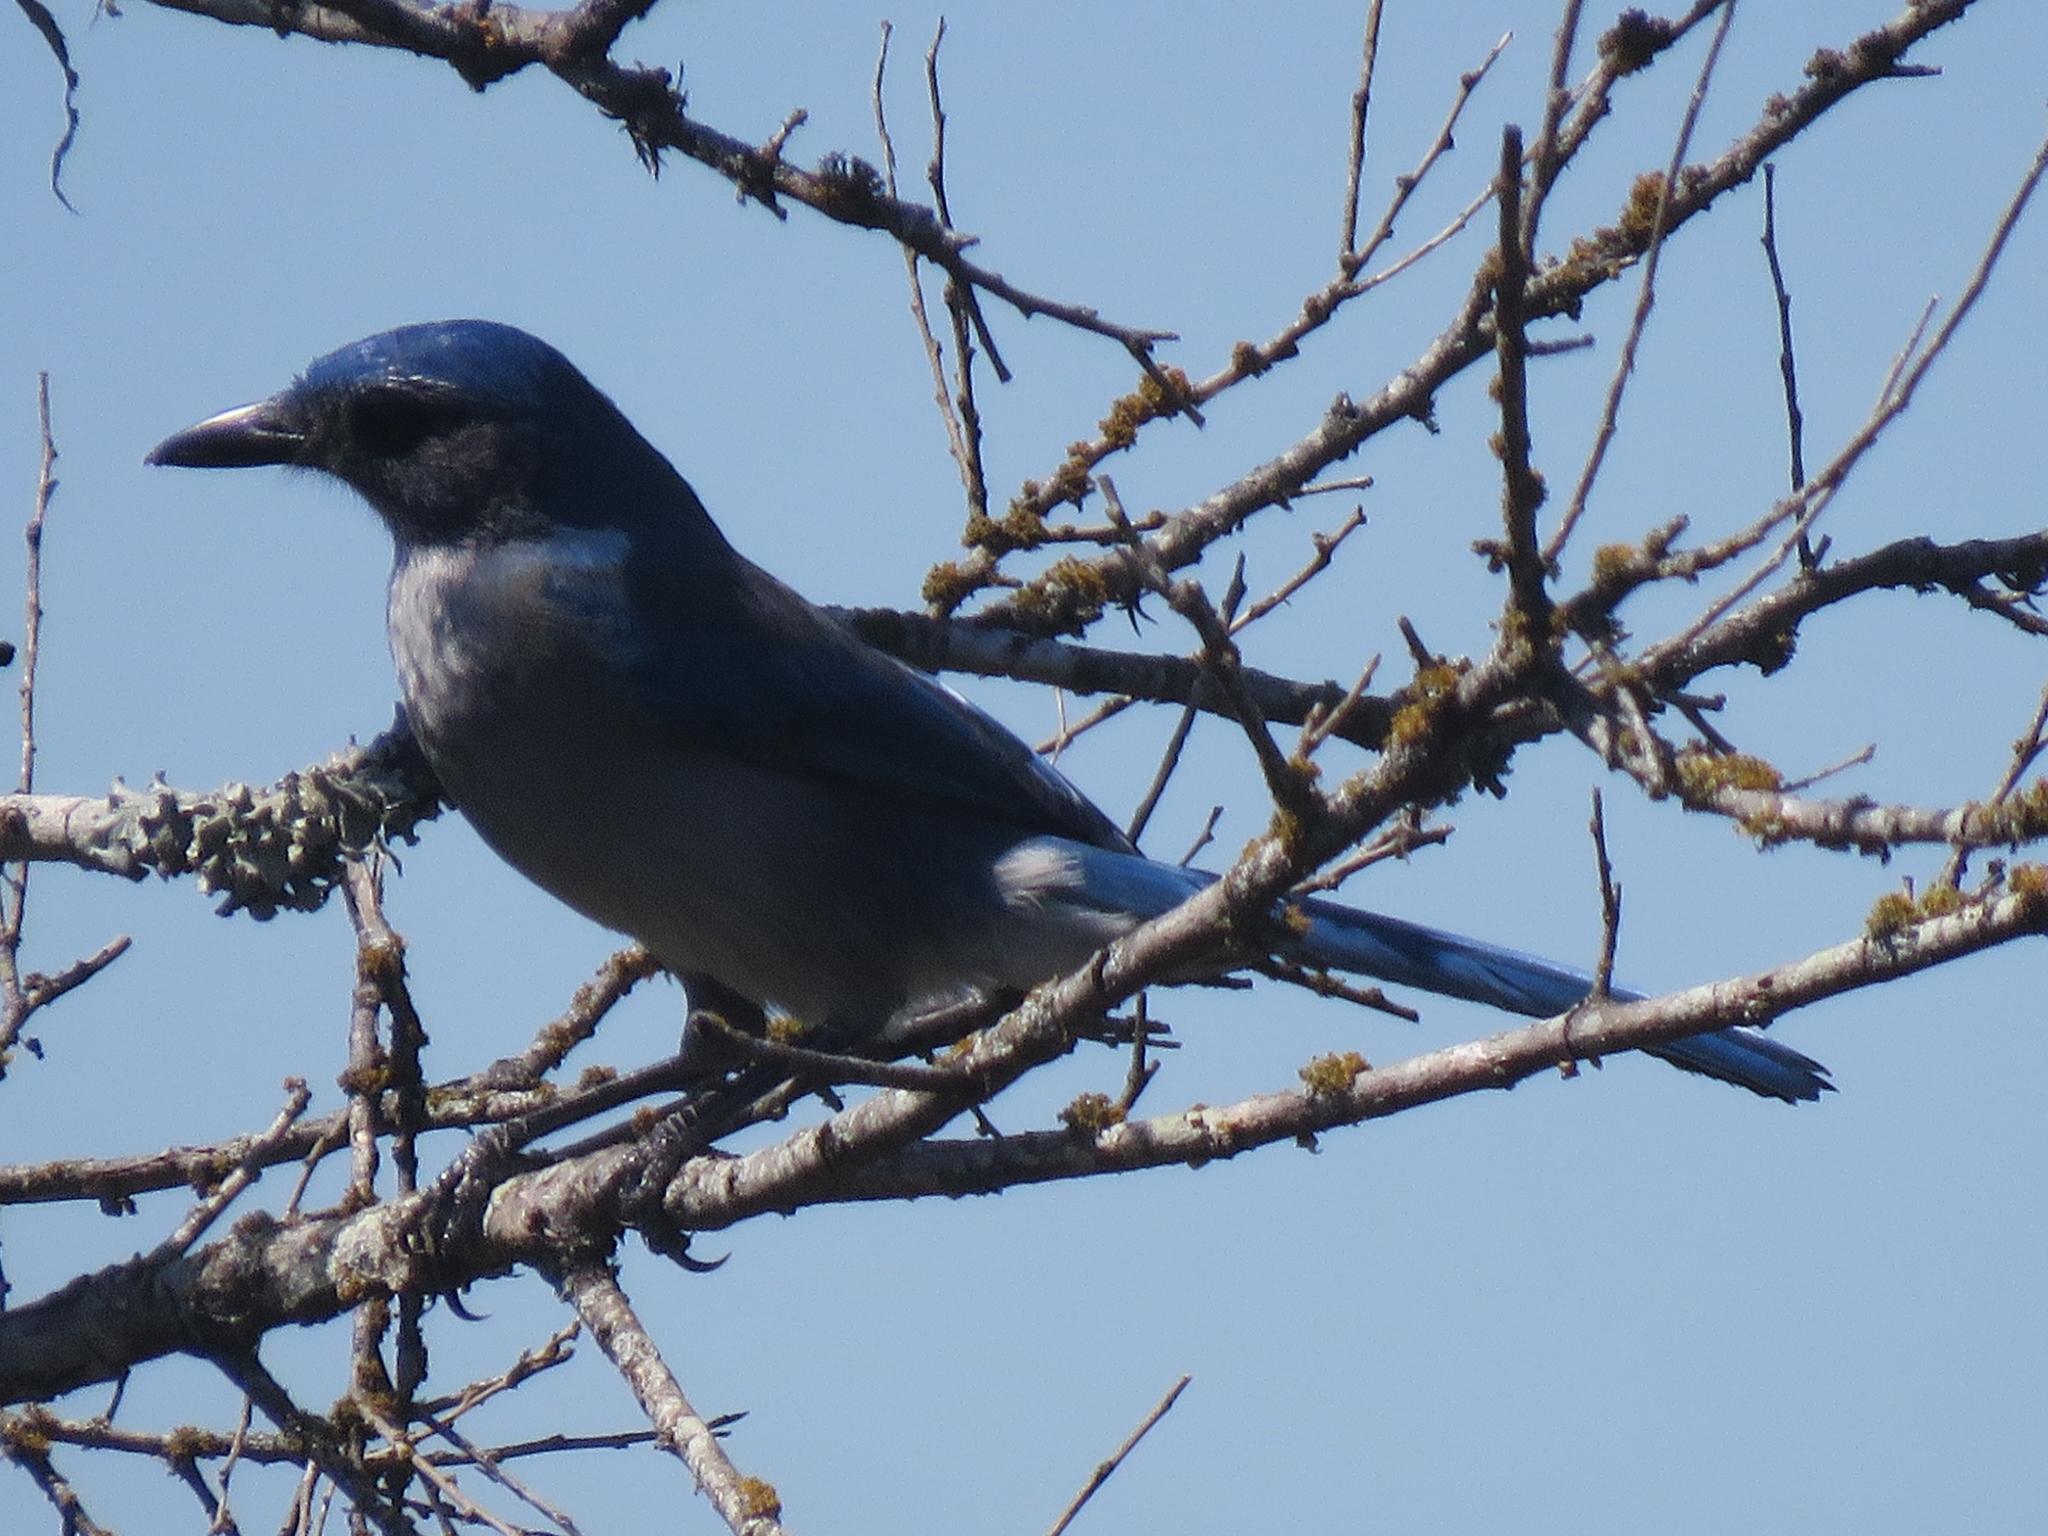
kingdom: Animalia
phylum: Chordata
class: Aves
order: Passeriformes
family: Corvidae
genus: Aphelocoma
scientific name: Aphelocoma woodhouseii
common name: Woodhouse's scrub-jay
